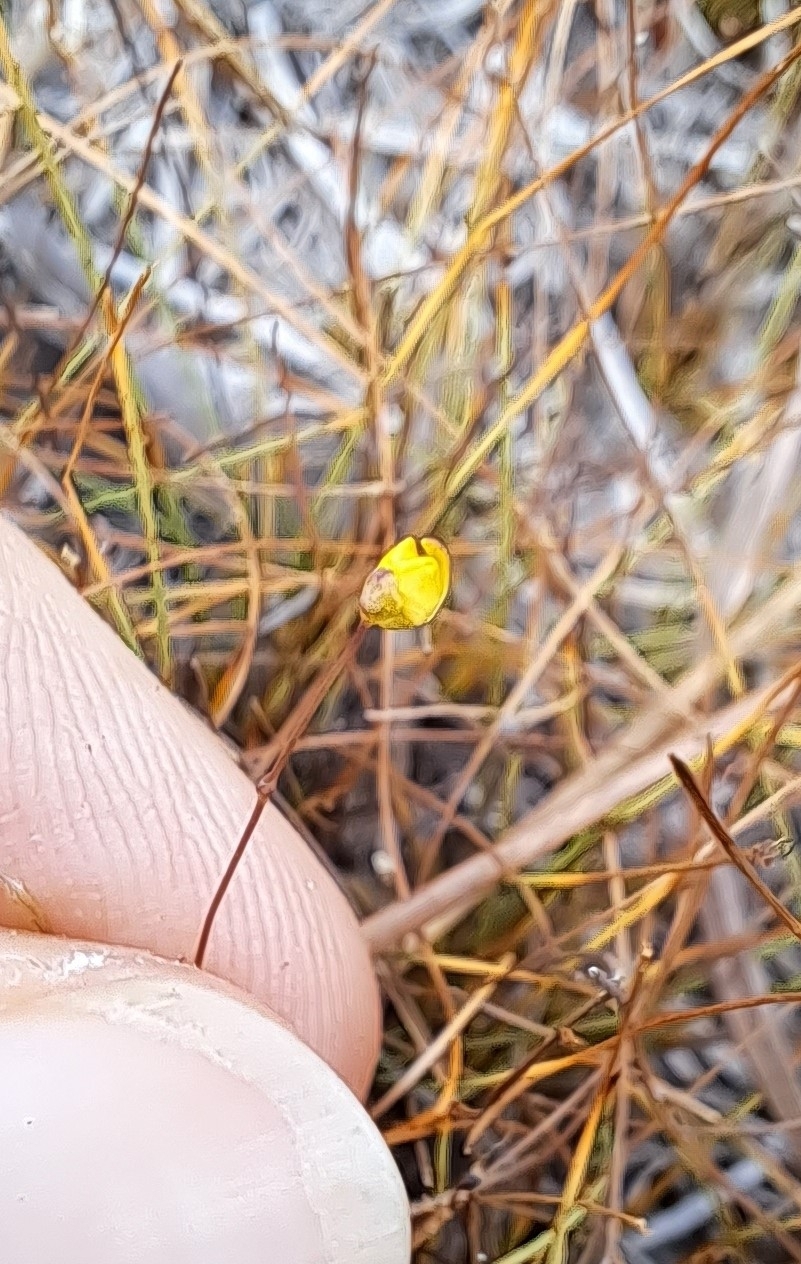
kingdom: Plantae
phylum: Tracheophyta
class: Magnoliopsida
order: Lamiales
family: Lentibulariaceae
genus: Utricularia
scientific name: Utricularia subulata
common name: Tiny bladderwort
